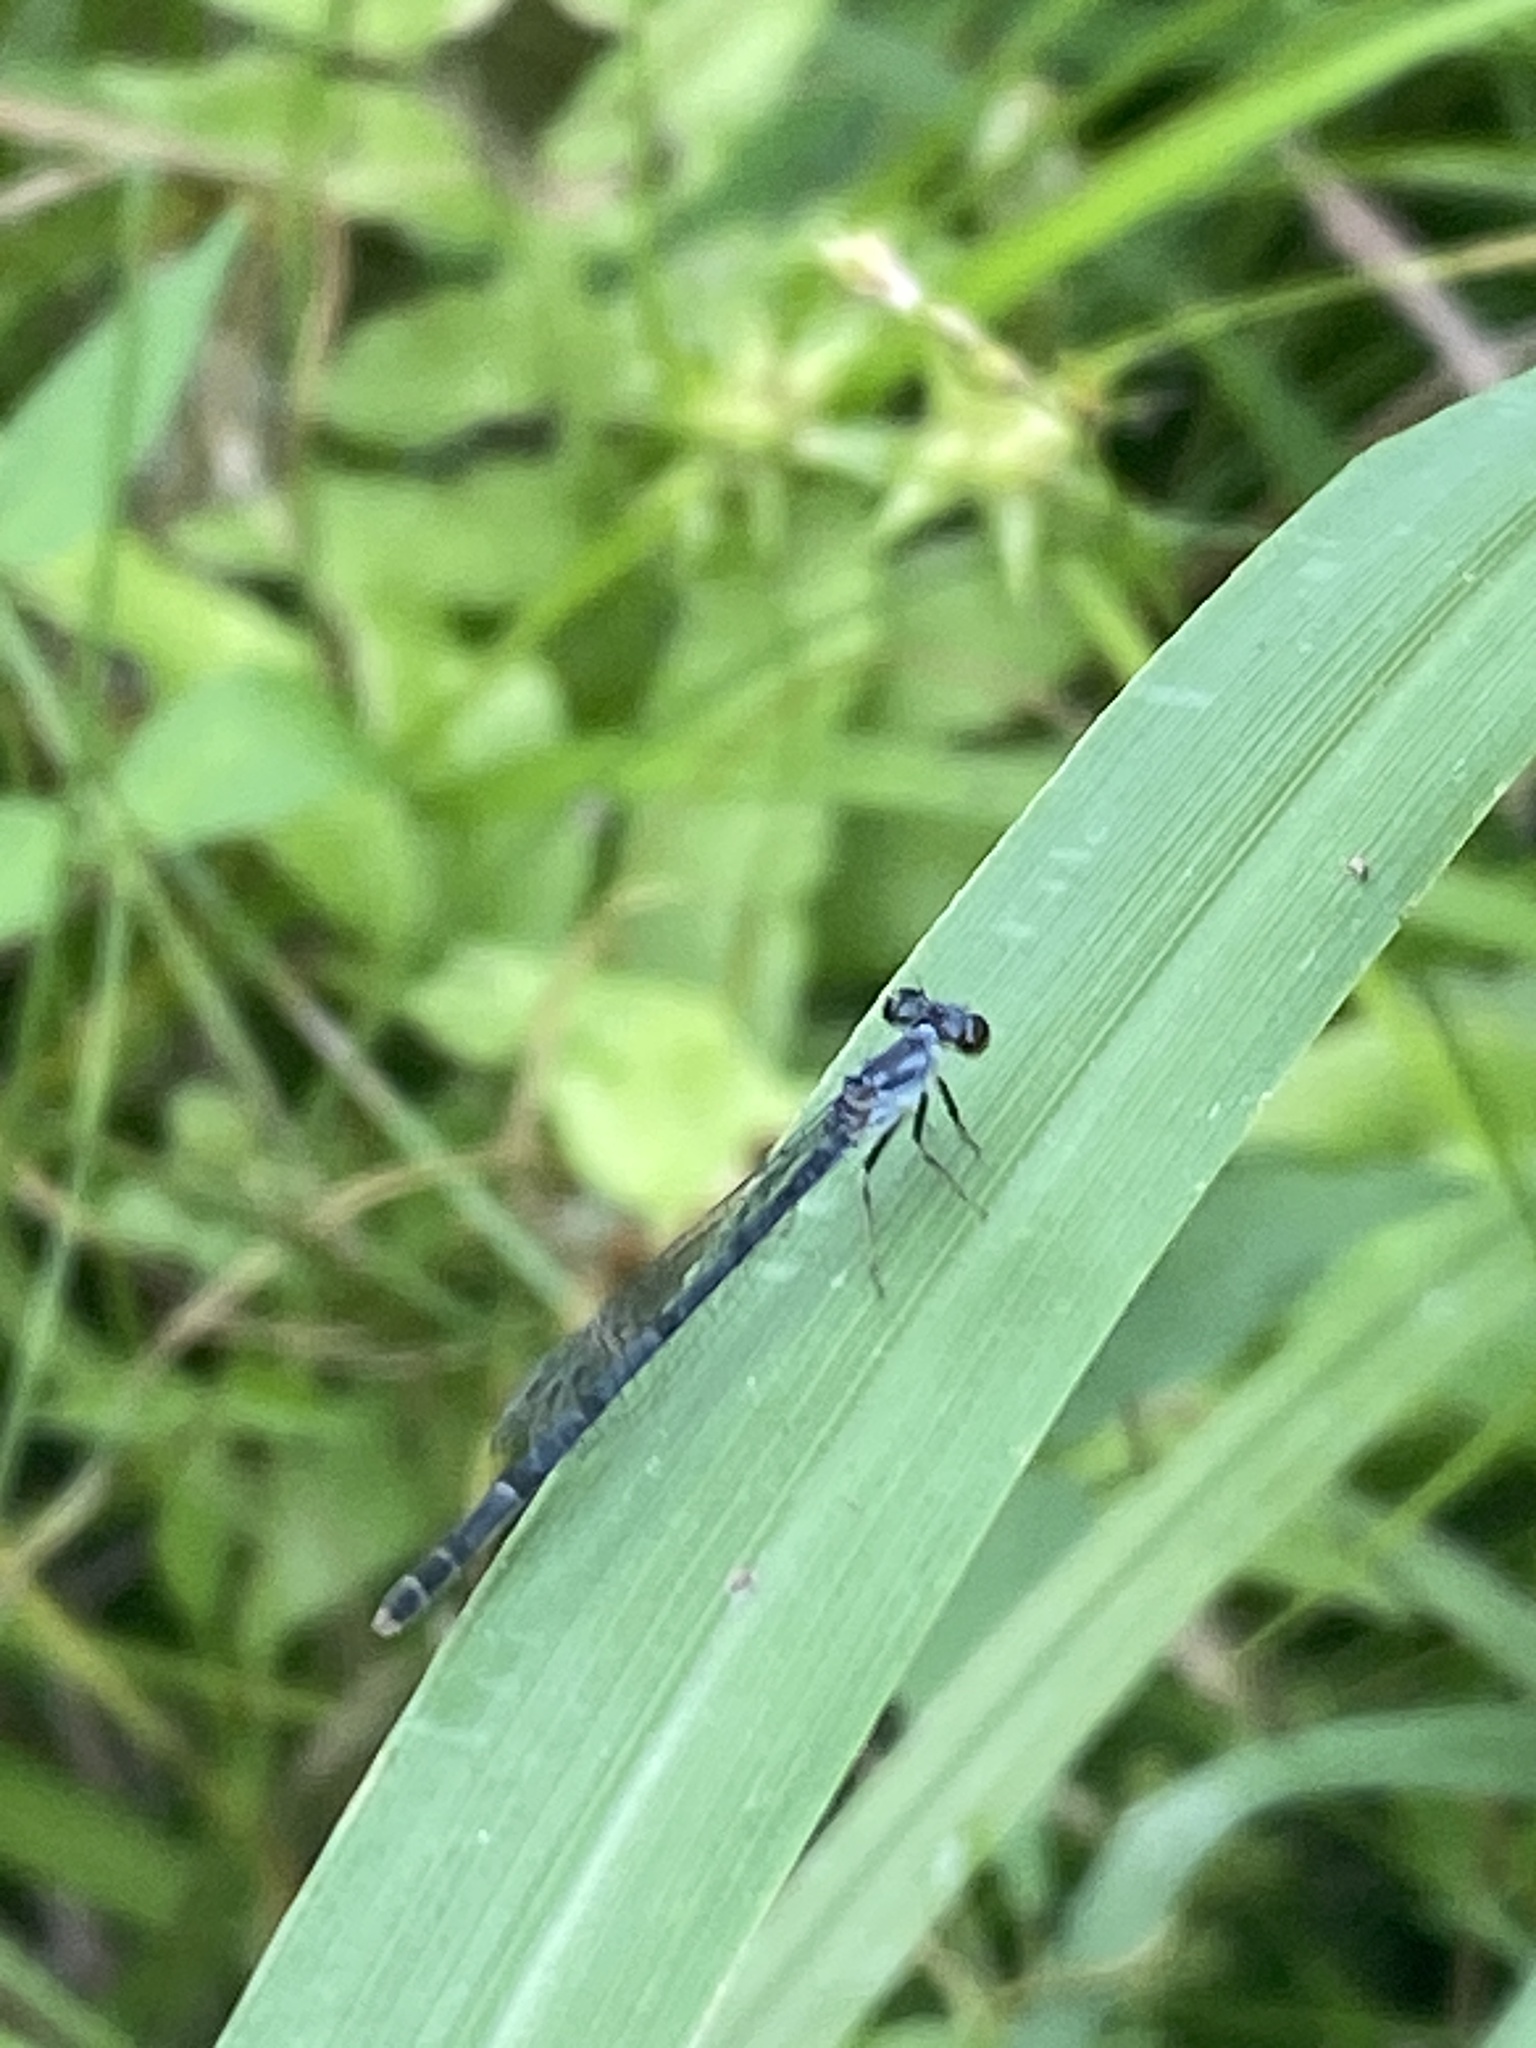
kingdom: Animalia
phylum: Arthropoda
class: Insecta
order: Odonata
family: Coenagrionidae
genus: Ischnura
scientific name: Ischnura posita
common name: Fragile forktail
